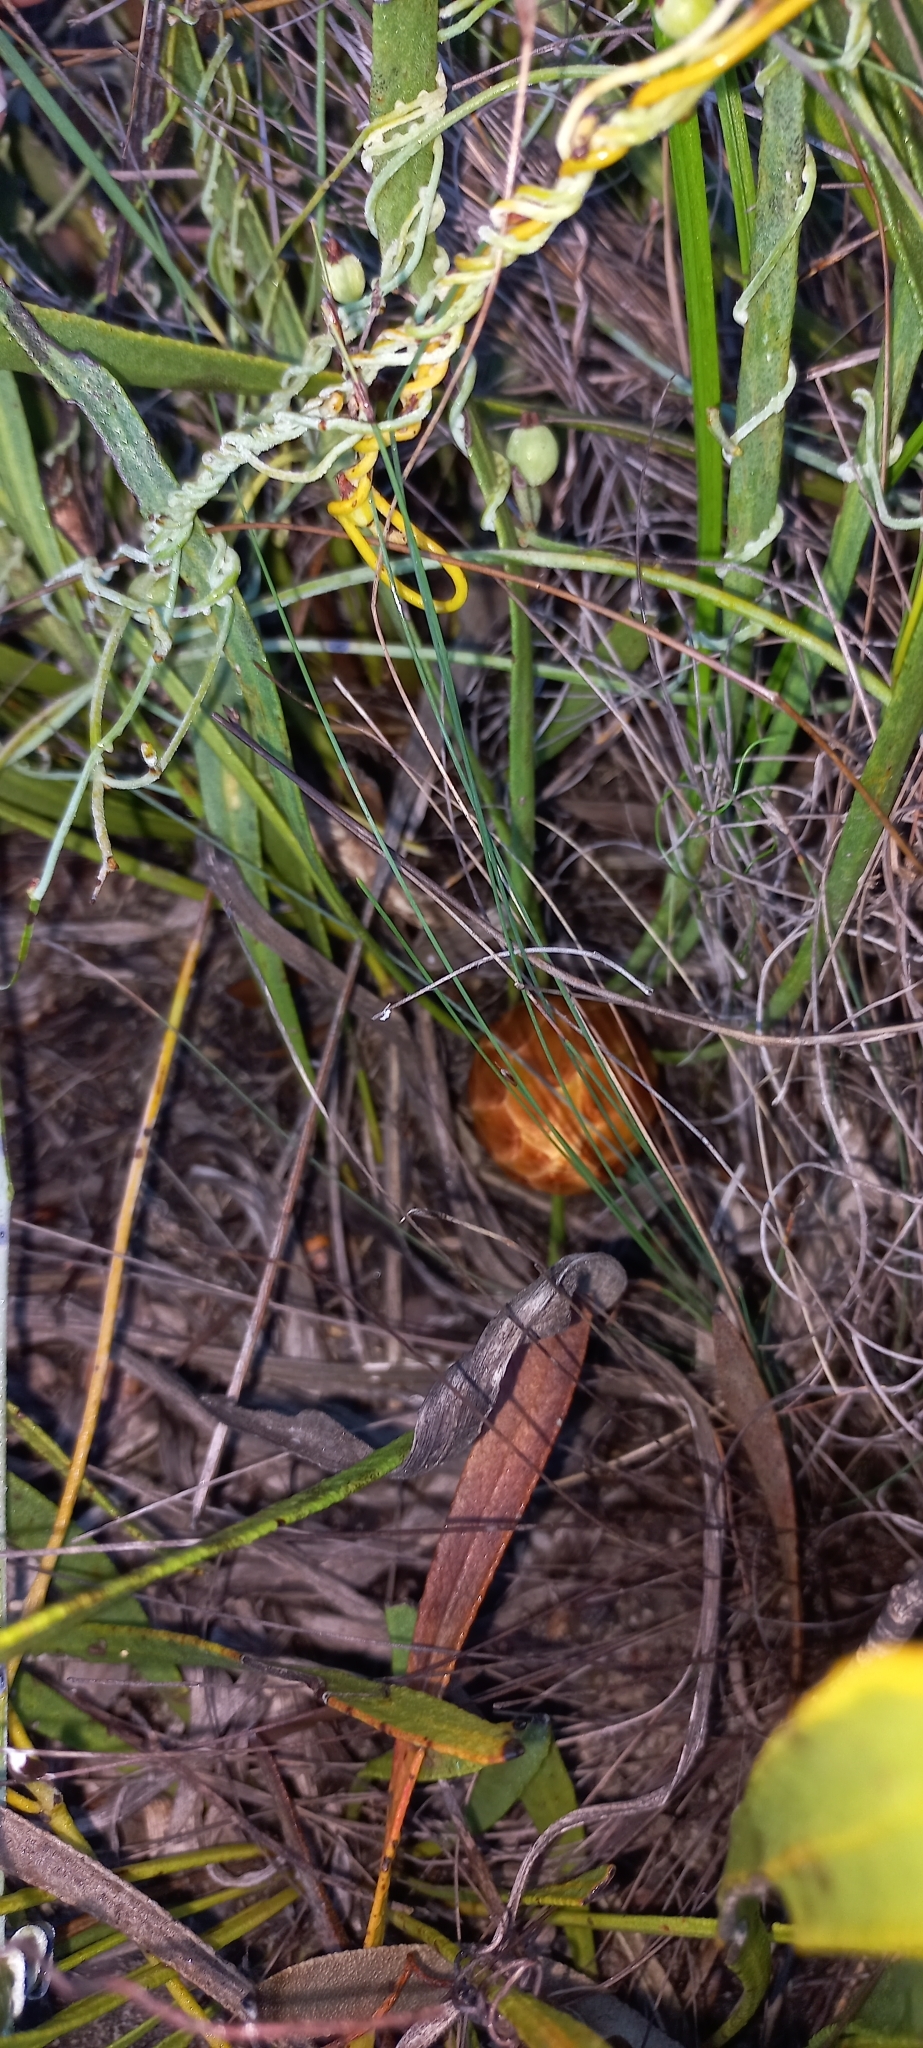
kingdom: Plantae
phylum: Tracheophyta
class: Magnoliopsida
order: Proteales
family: Proteaceae
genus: Protea
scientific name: Protea scabra
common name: Sandpaper-leaf sugarbush
